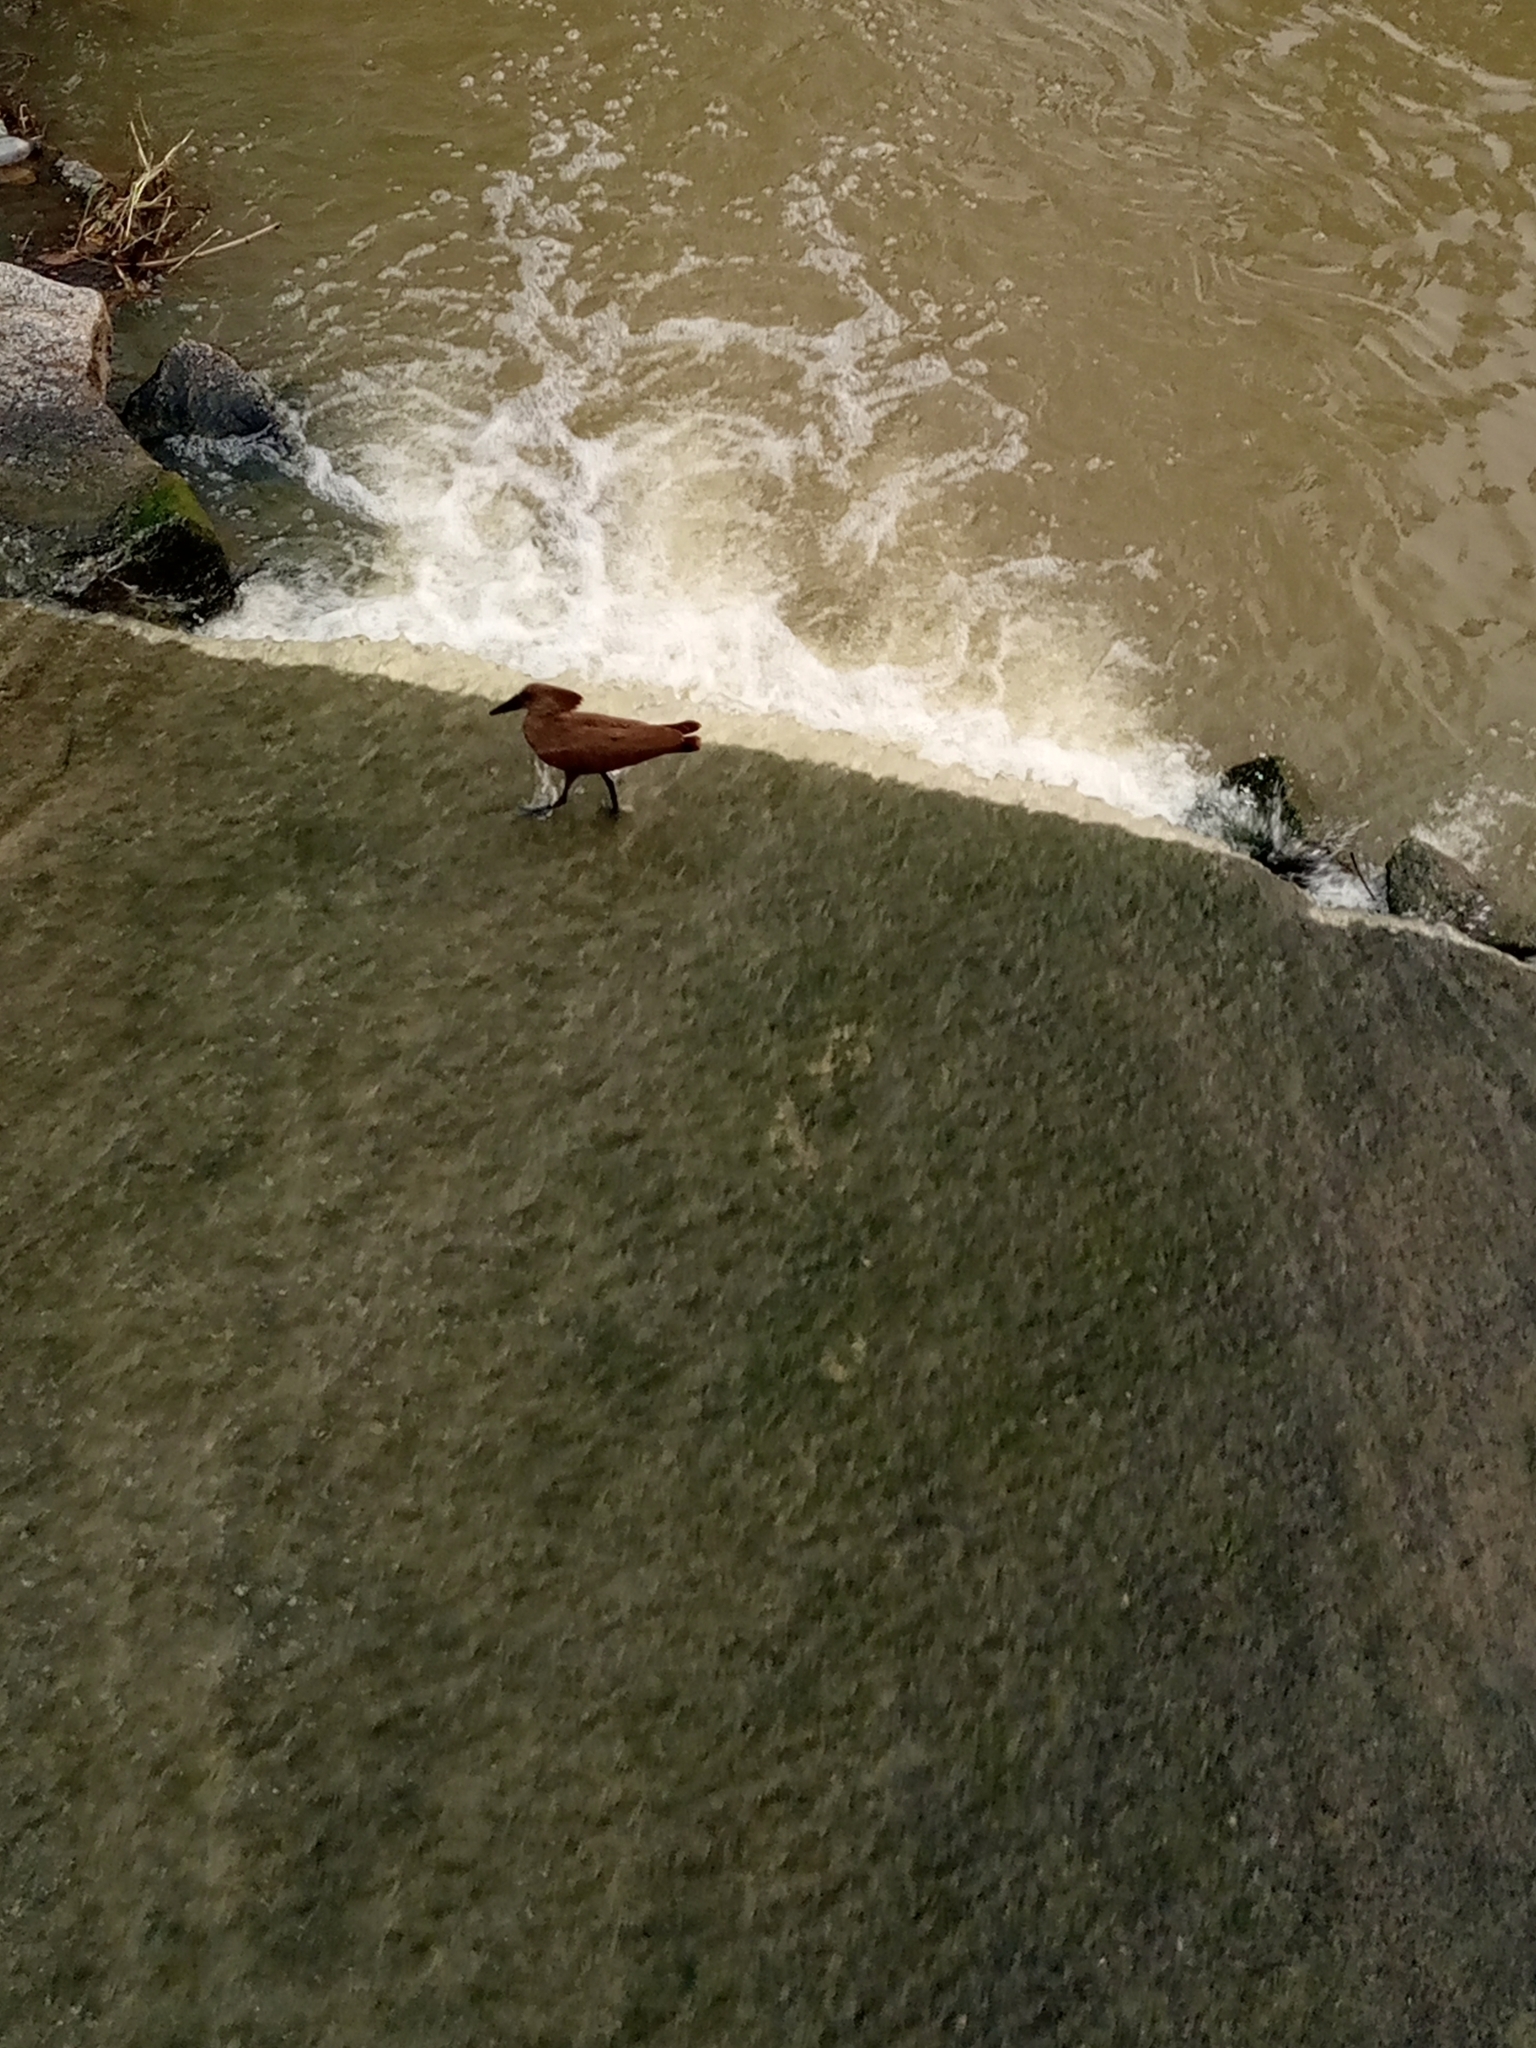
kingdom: Animalia
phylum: Chordata
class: Aves
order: Pelecaniformes
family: Scopidae
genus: Scopus
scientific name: Scopus umbretta
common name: Hamerkop
